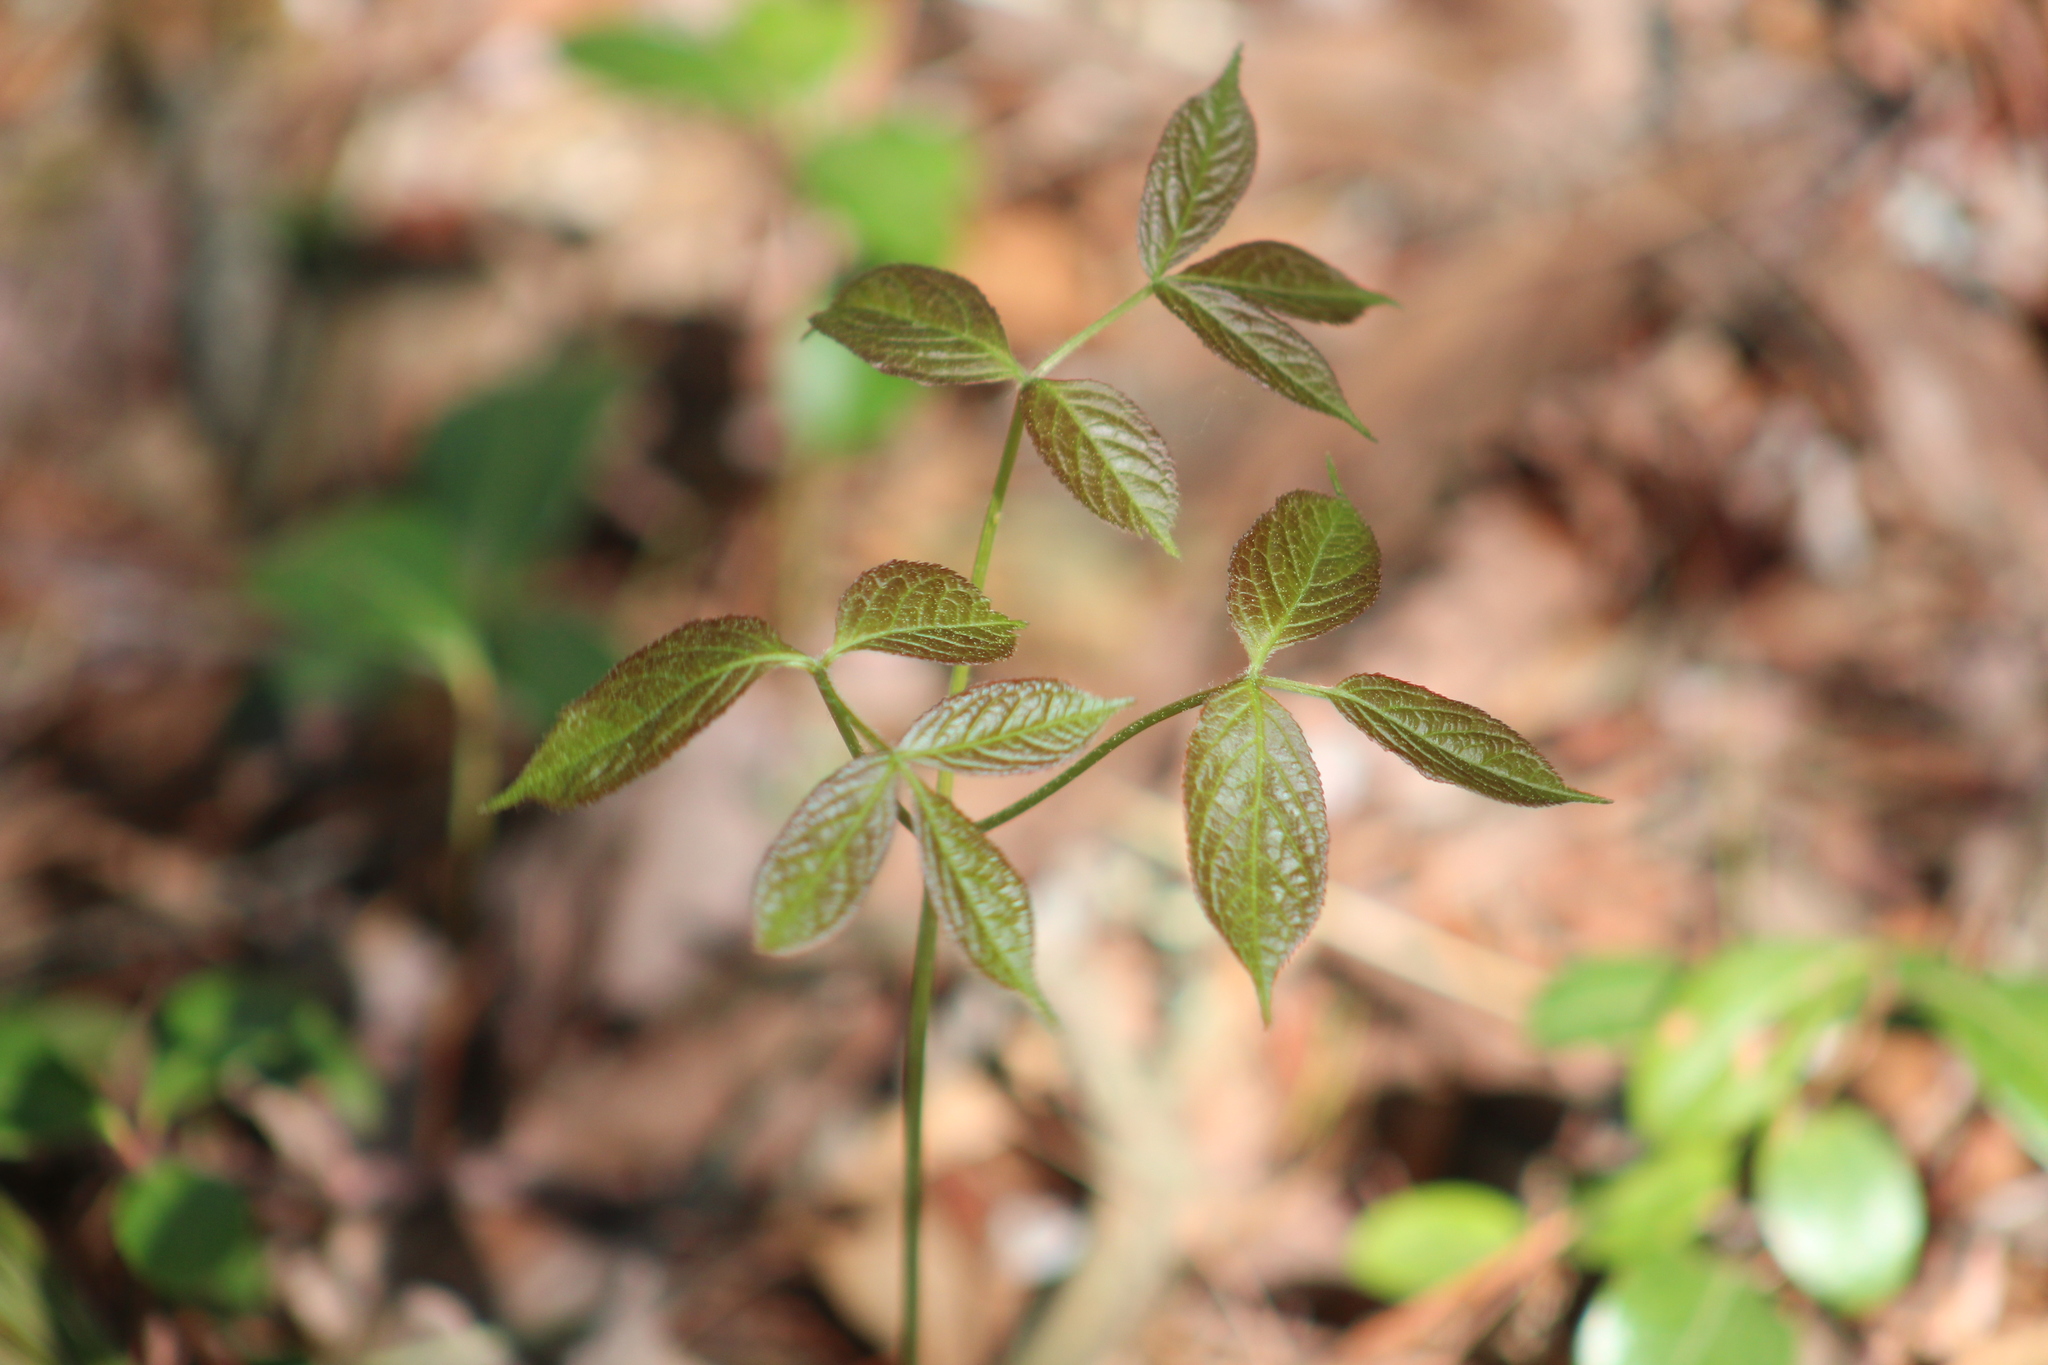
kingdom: Plantae
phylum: Tracheophyta
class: Magnoliopsida
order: Apiales
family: Araliaceae
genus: Aralia
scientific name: Aralia nudicaulis
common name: Wild sarsaparilla
